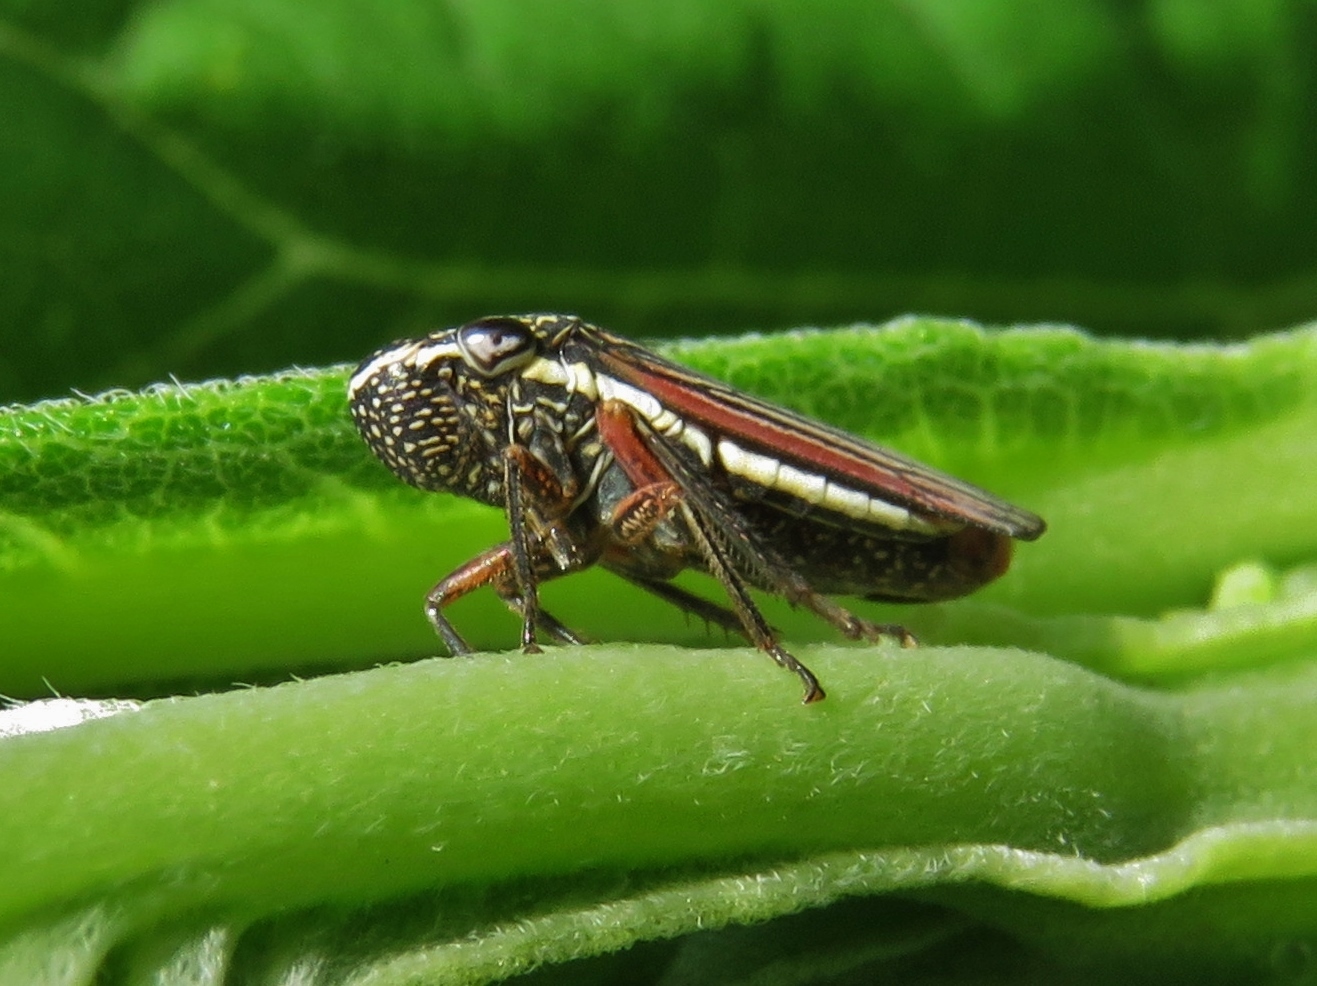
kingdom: Animalia
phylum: Arthropoda
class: Insecta
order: Hemiptera
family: Cicadellidae
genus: Cuerna
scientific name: Cuerna costalis
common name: Lateral-lined sharpshooter
